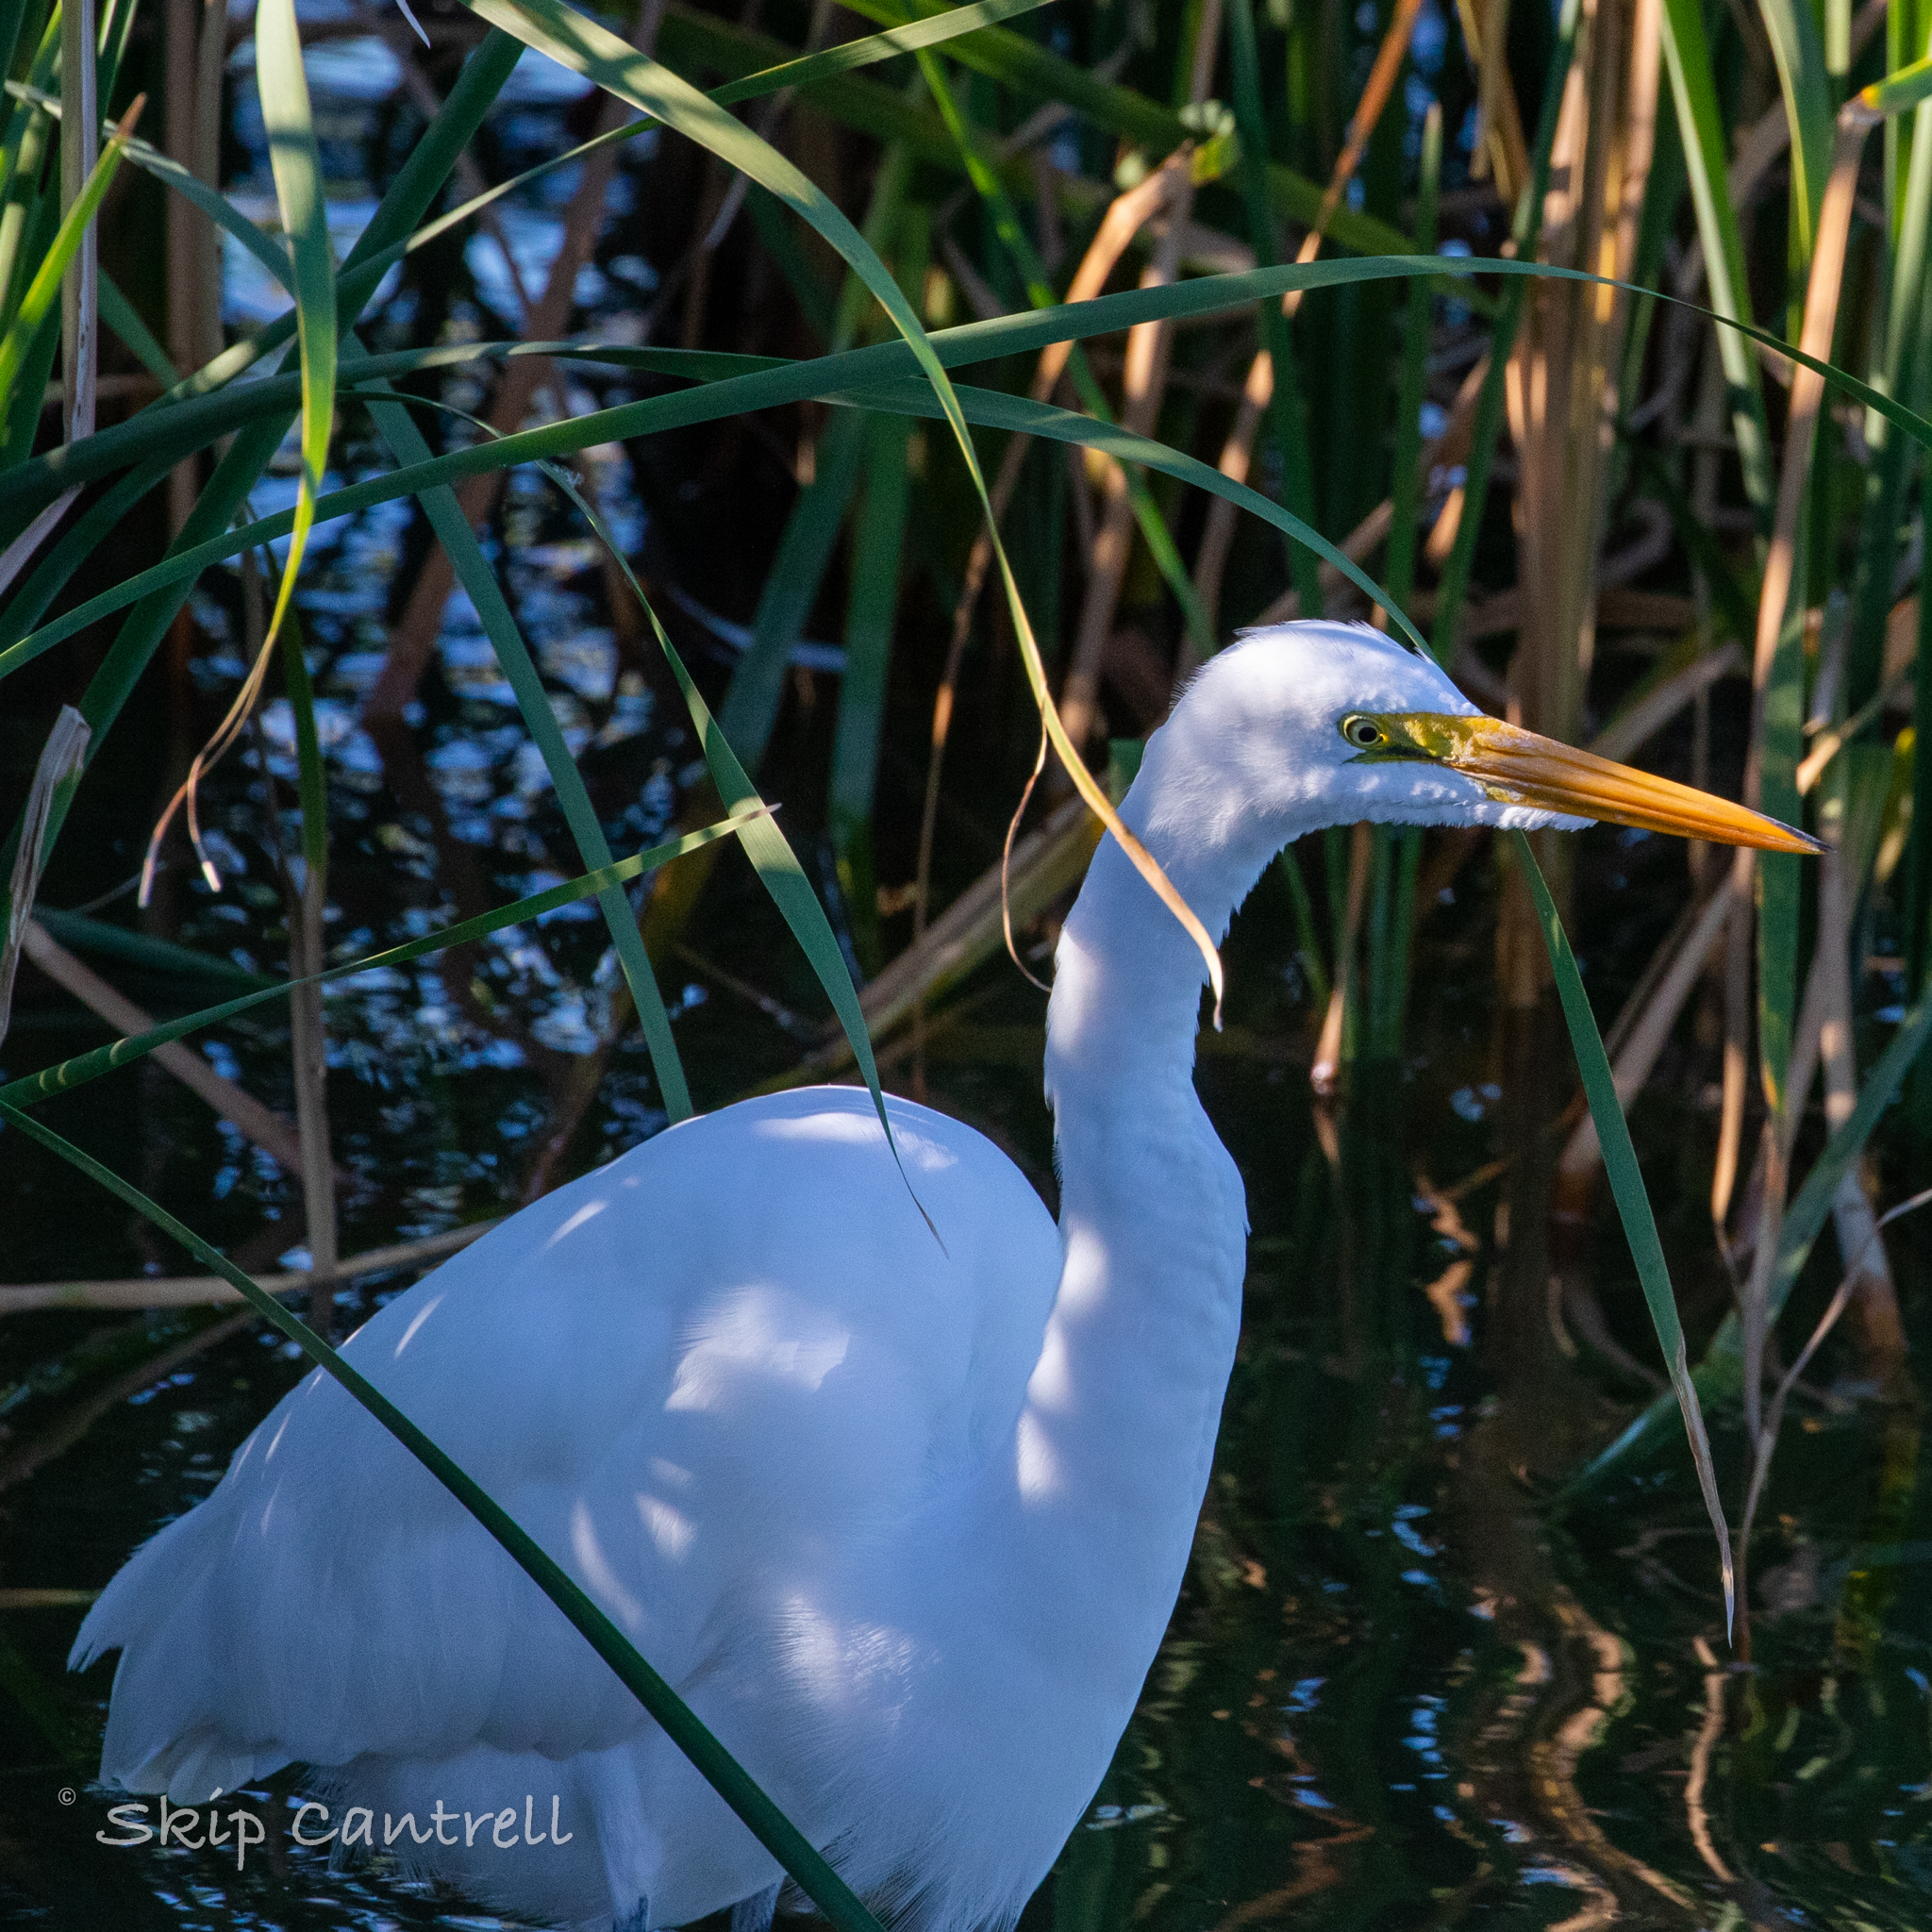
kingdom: Animalia
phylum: Chordata
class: Aves
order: Pelecaniformes
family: Ardeidae
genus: Ardea
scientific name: Ardea alba
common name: Great egret
